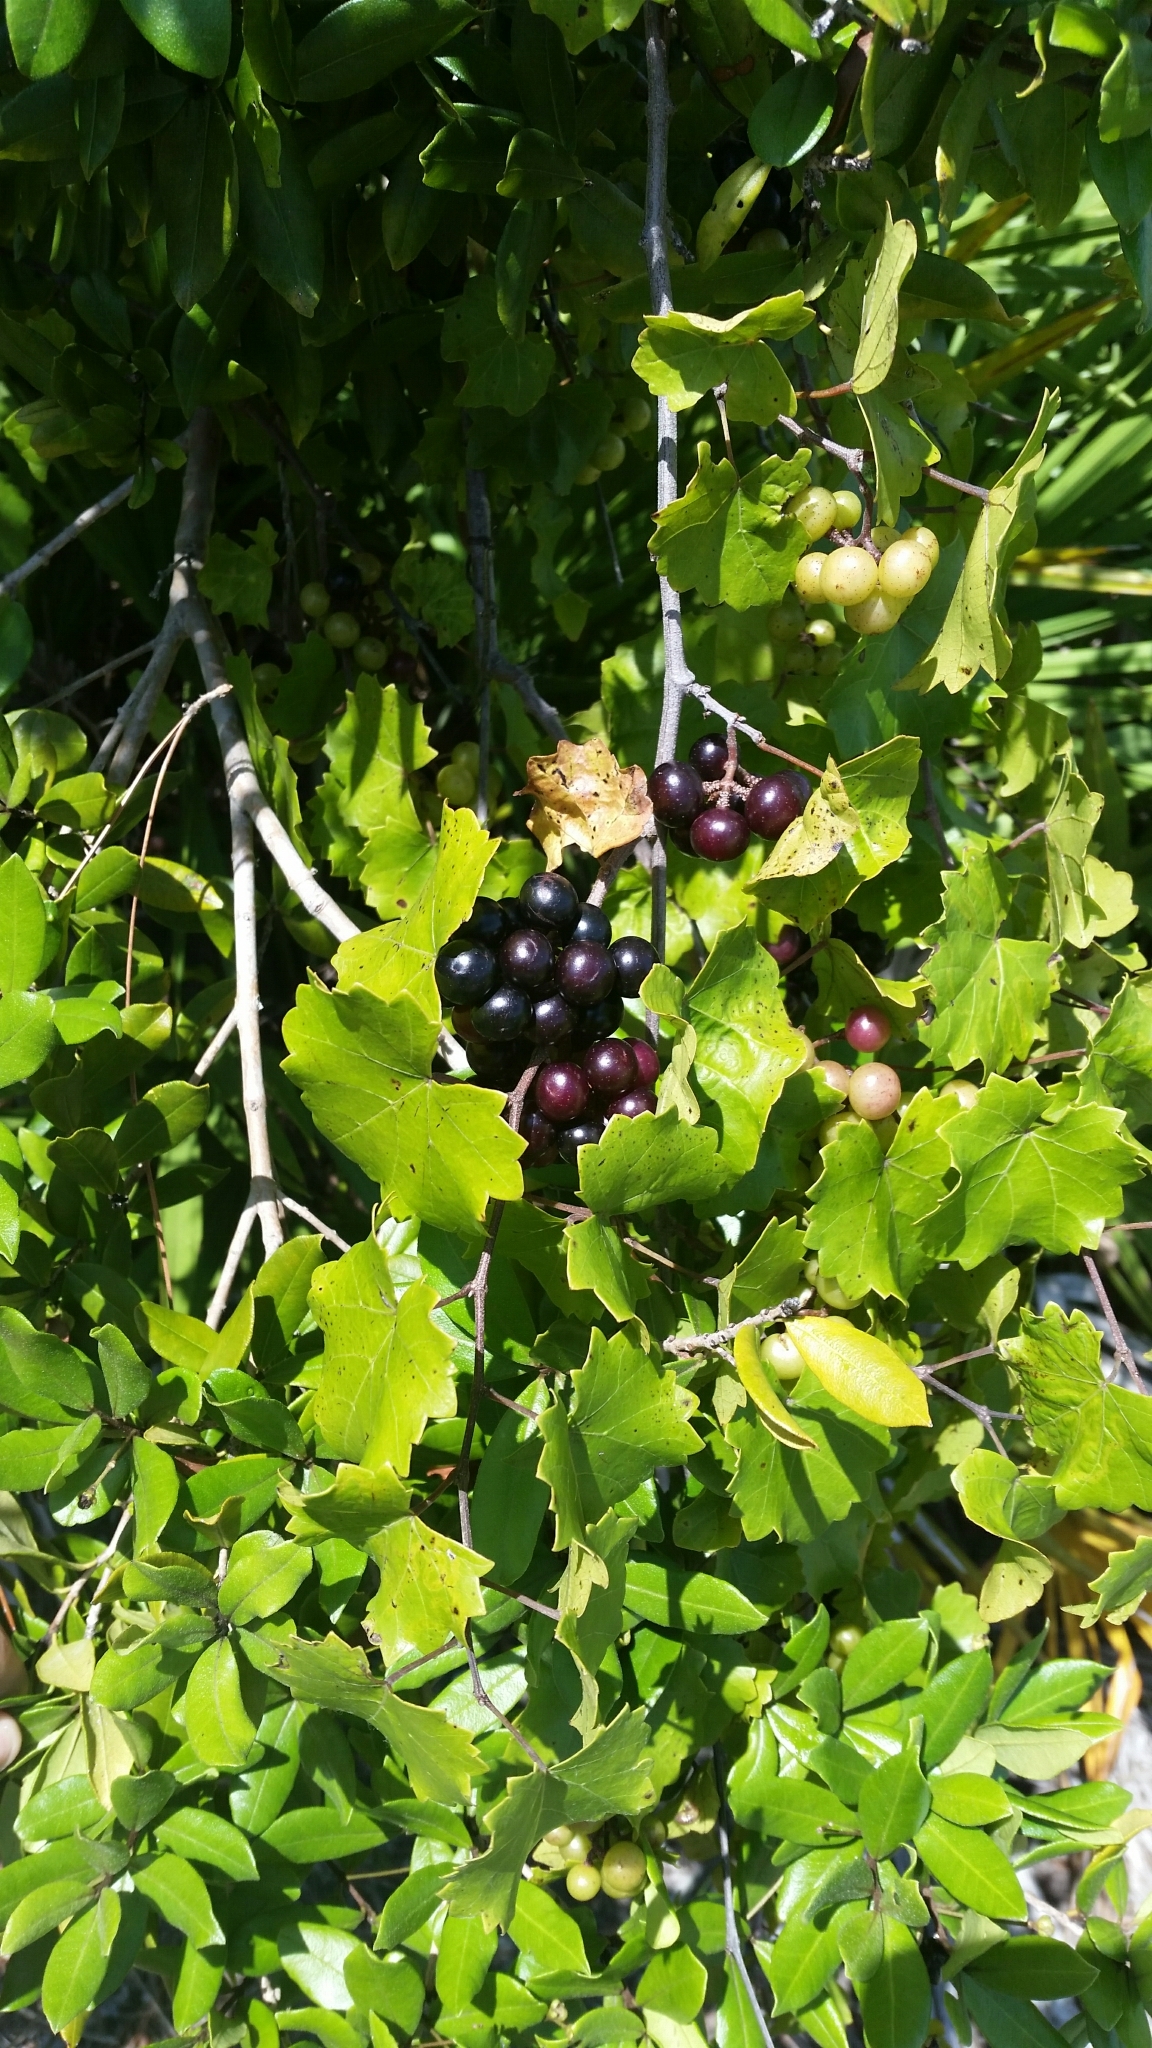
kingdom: Plantae
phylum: Tracheophyta
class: Magnoliopsida
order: Vitales
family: Vitaceae
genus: Vitis
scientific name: Vitis rotundifolia
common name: Muscadine grape
